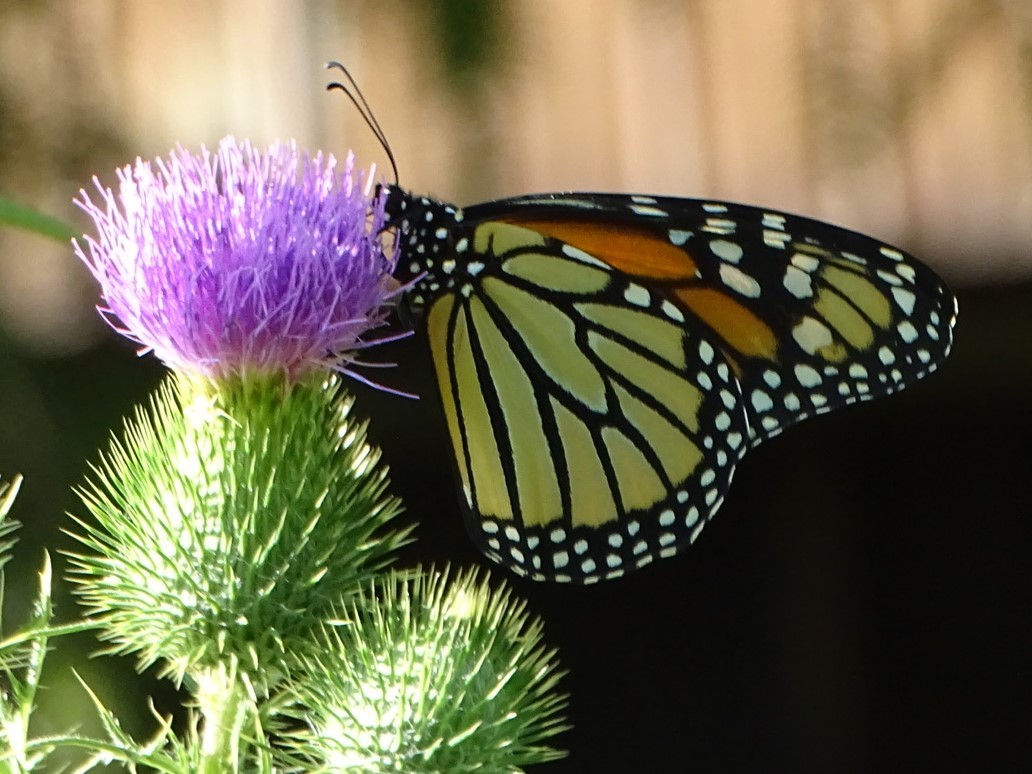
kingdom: Animalia
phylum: Arthropoda
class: Insecta
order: Lepidoptera
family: Nymphalidae
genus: Danaus
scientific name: Danaus plexippus
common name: Monarch
